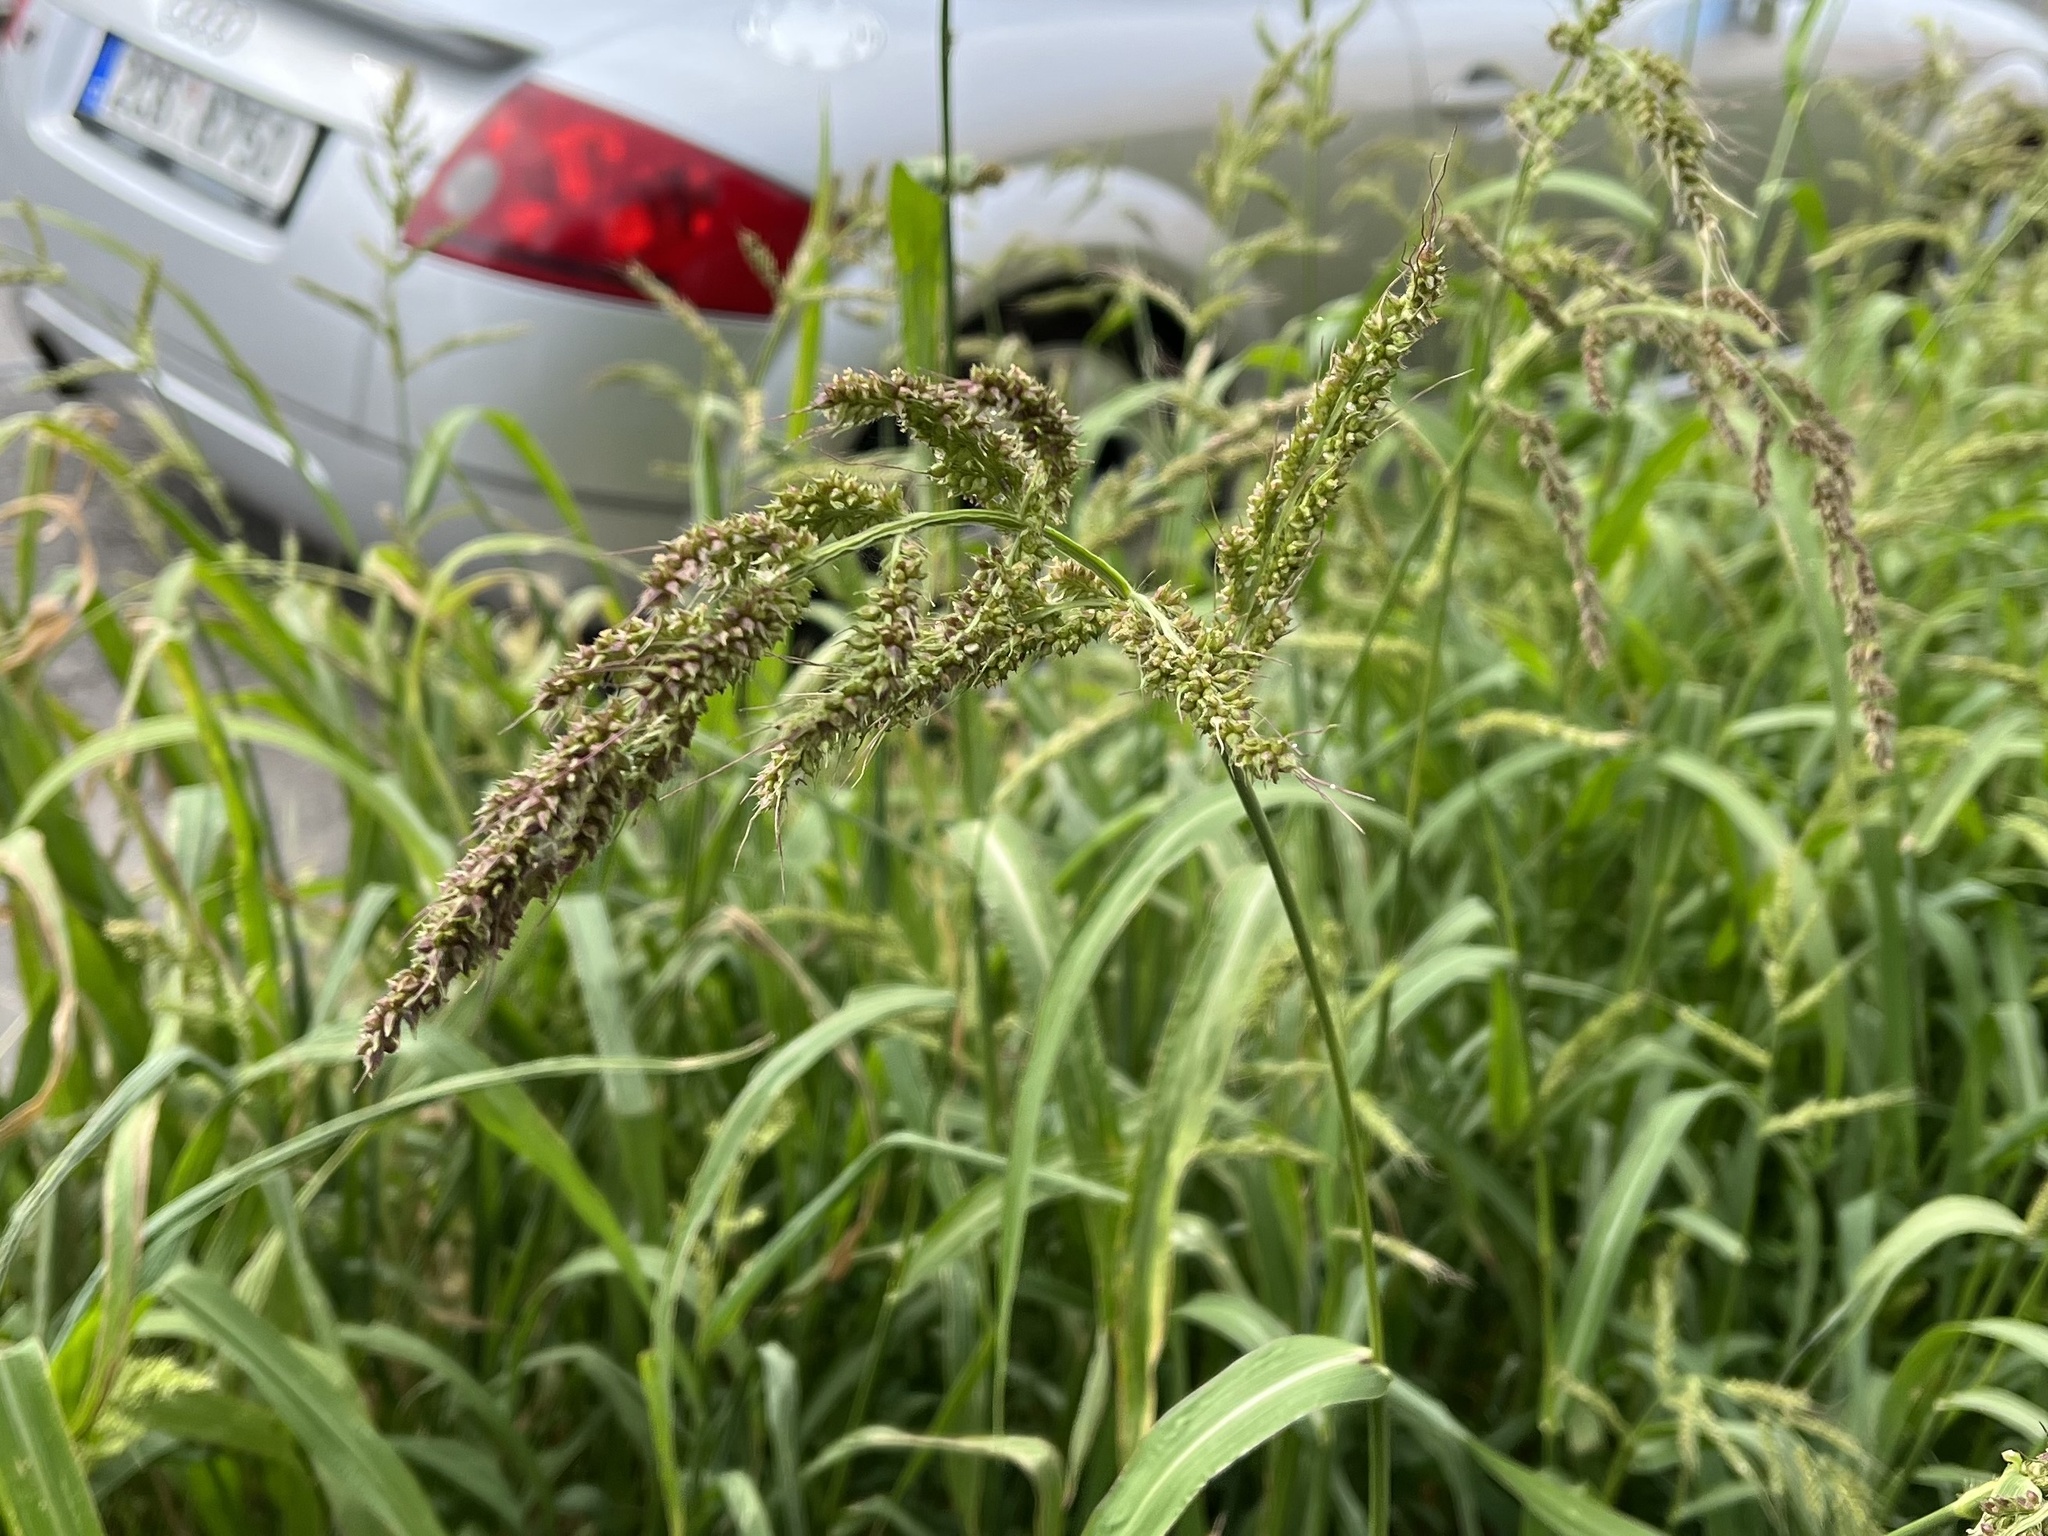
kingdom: Plantae
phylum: Tracheophyta
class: Liliopsida
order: Poales
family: Poaceae
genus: Echinochloa
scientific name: Echinochloa crus-galli
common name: Cockspur
